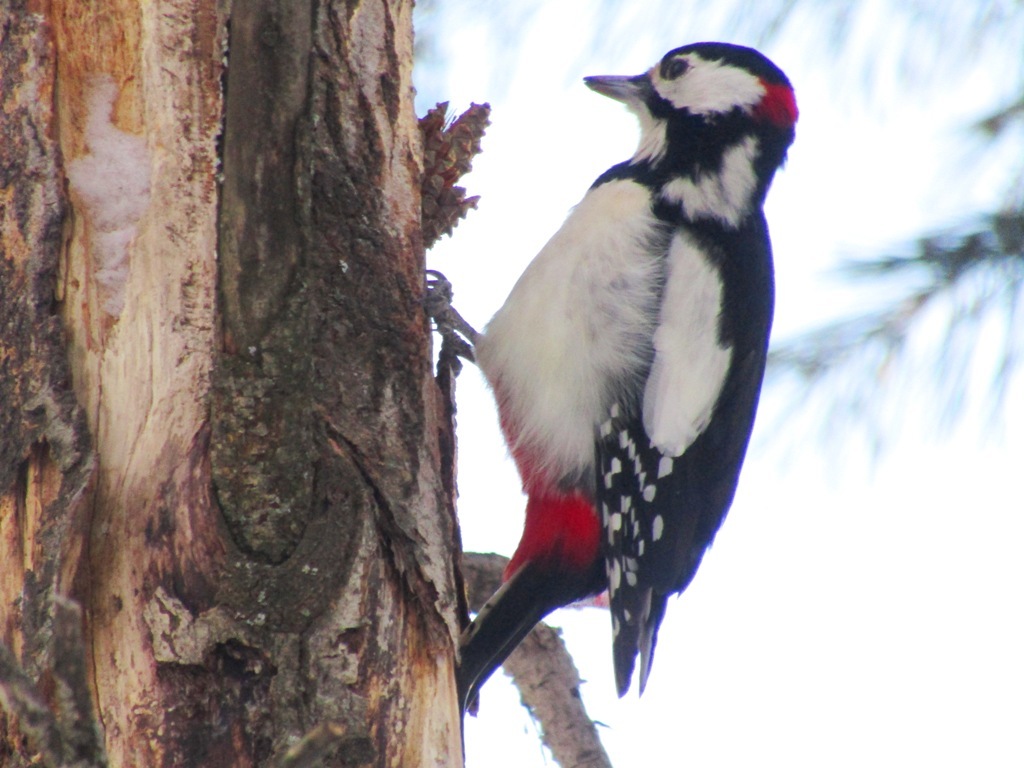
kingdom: Animalia
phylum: Chordata
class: Aves
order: Piciformes
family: Picidae
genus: Dendrocopos
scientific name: Dendrocopos major
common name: Great spotted woodpecker
